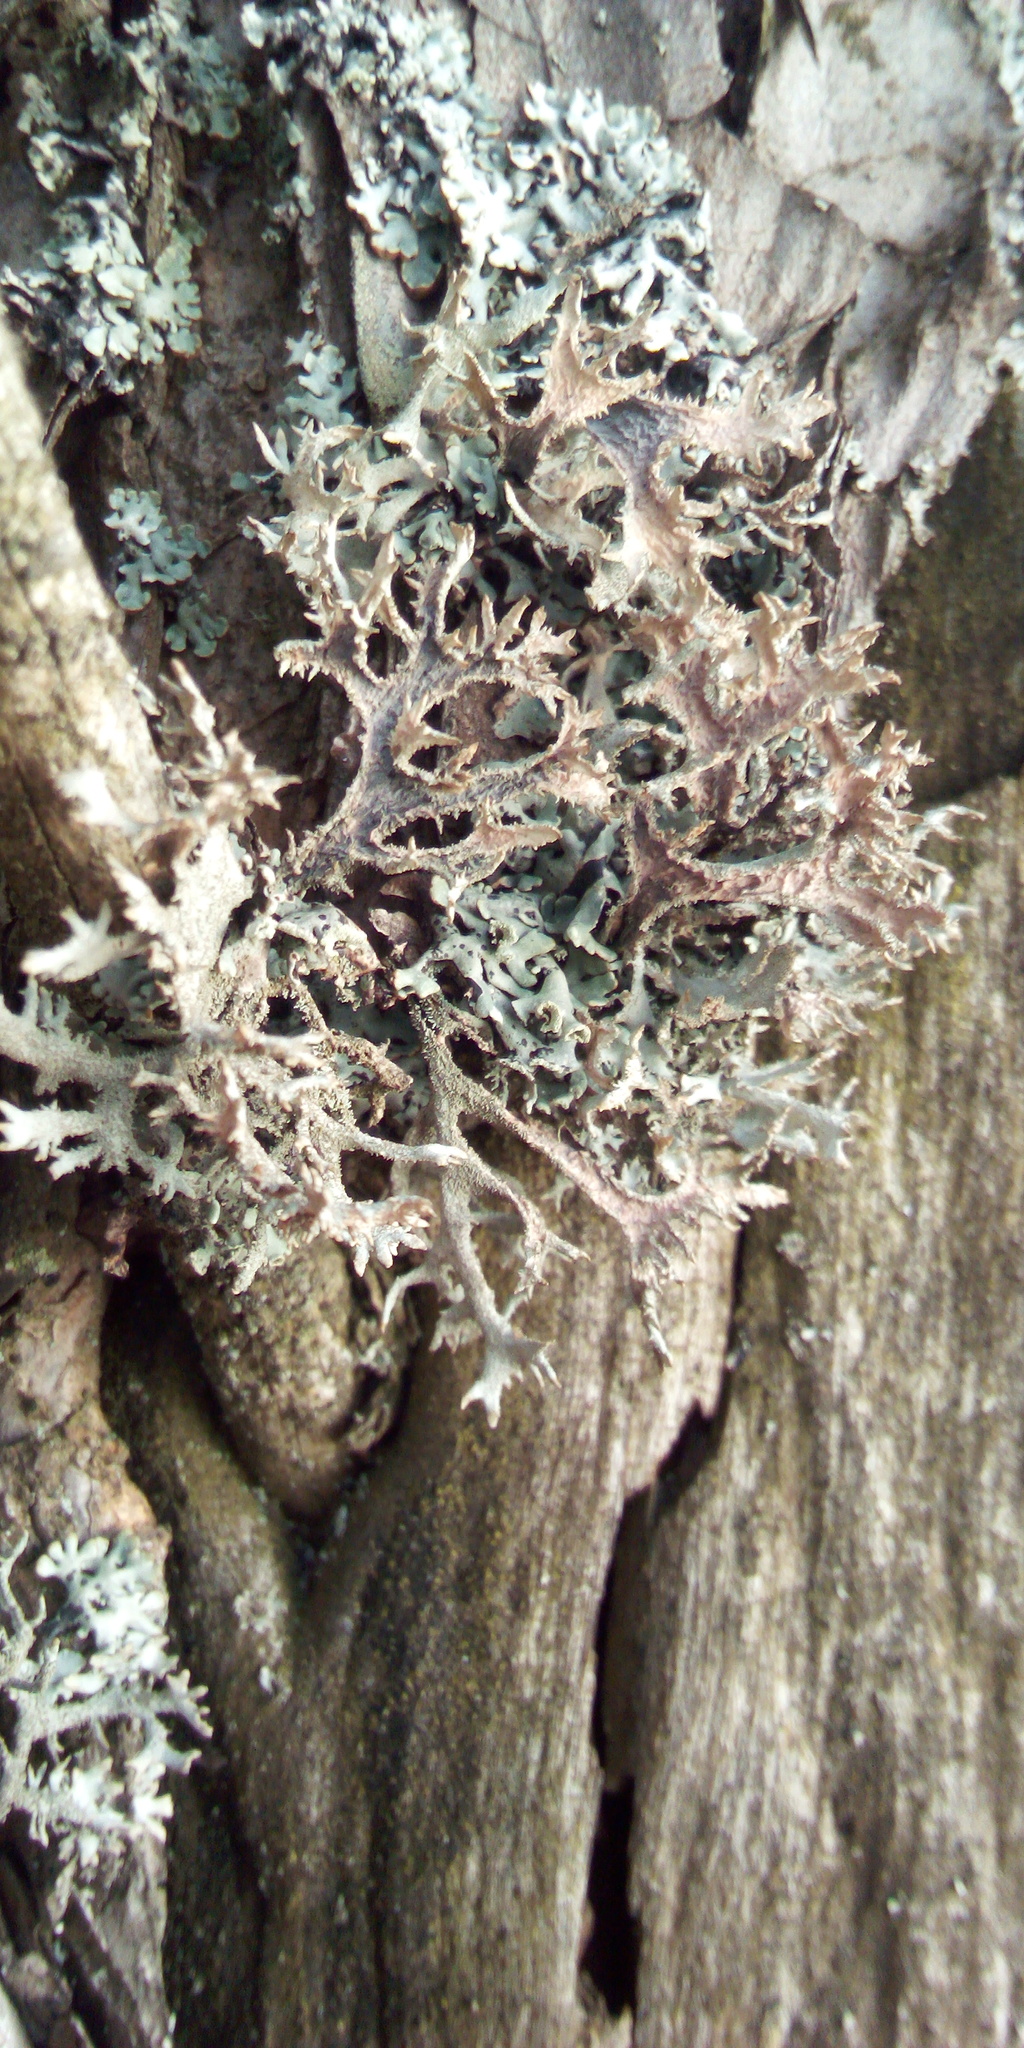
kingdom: Fungi
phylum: Ascomycota
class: Lecanoromycetes
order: Lecanorales
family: Parmeliaceae
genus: Pseudevernia
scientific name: Pseudevernia furfuracea
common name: Tree moss
